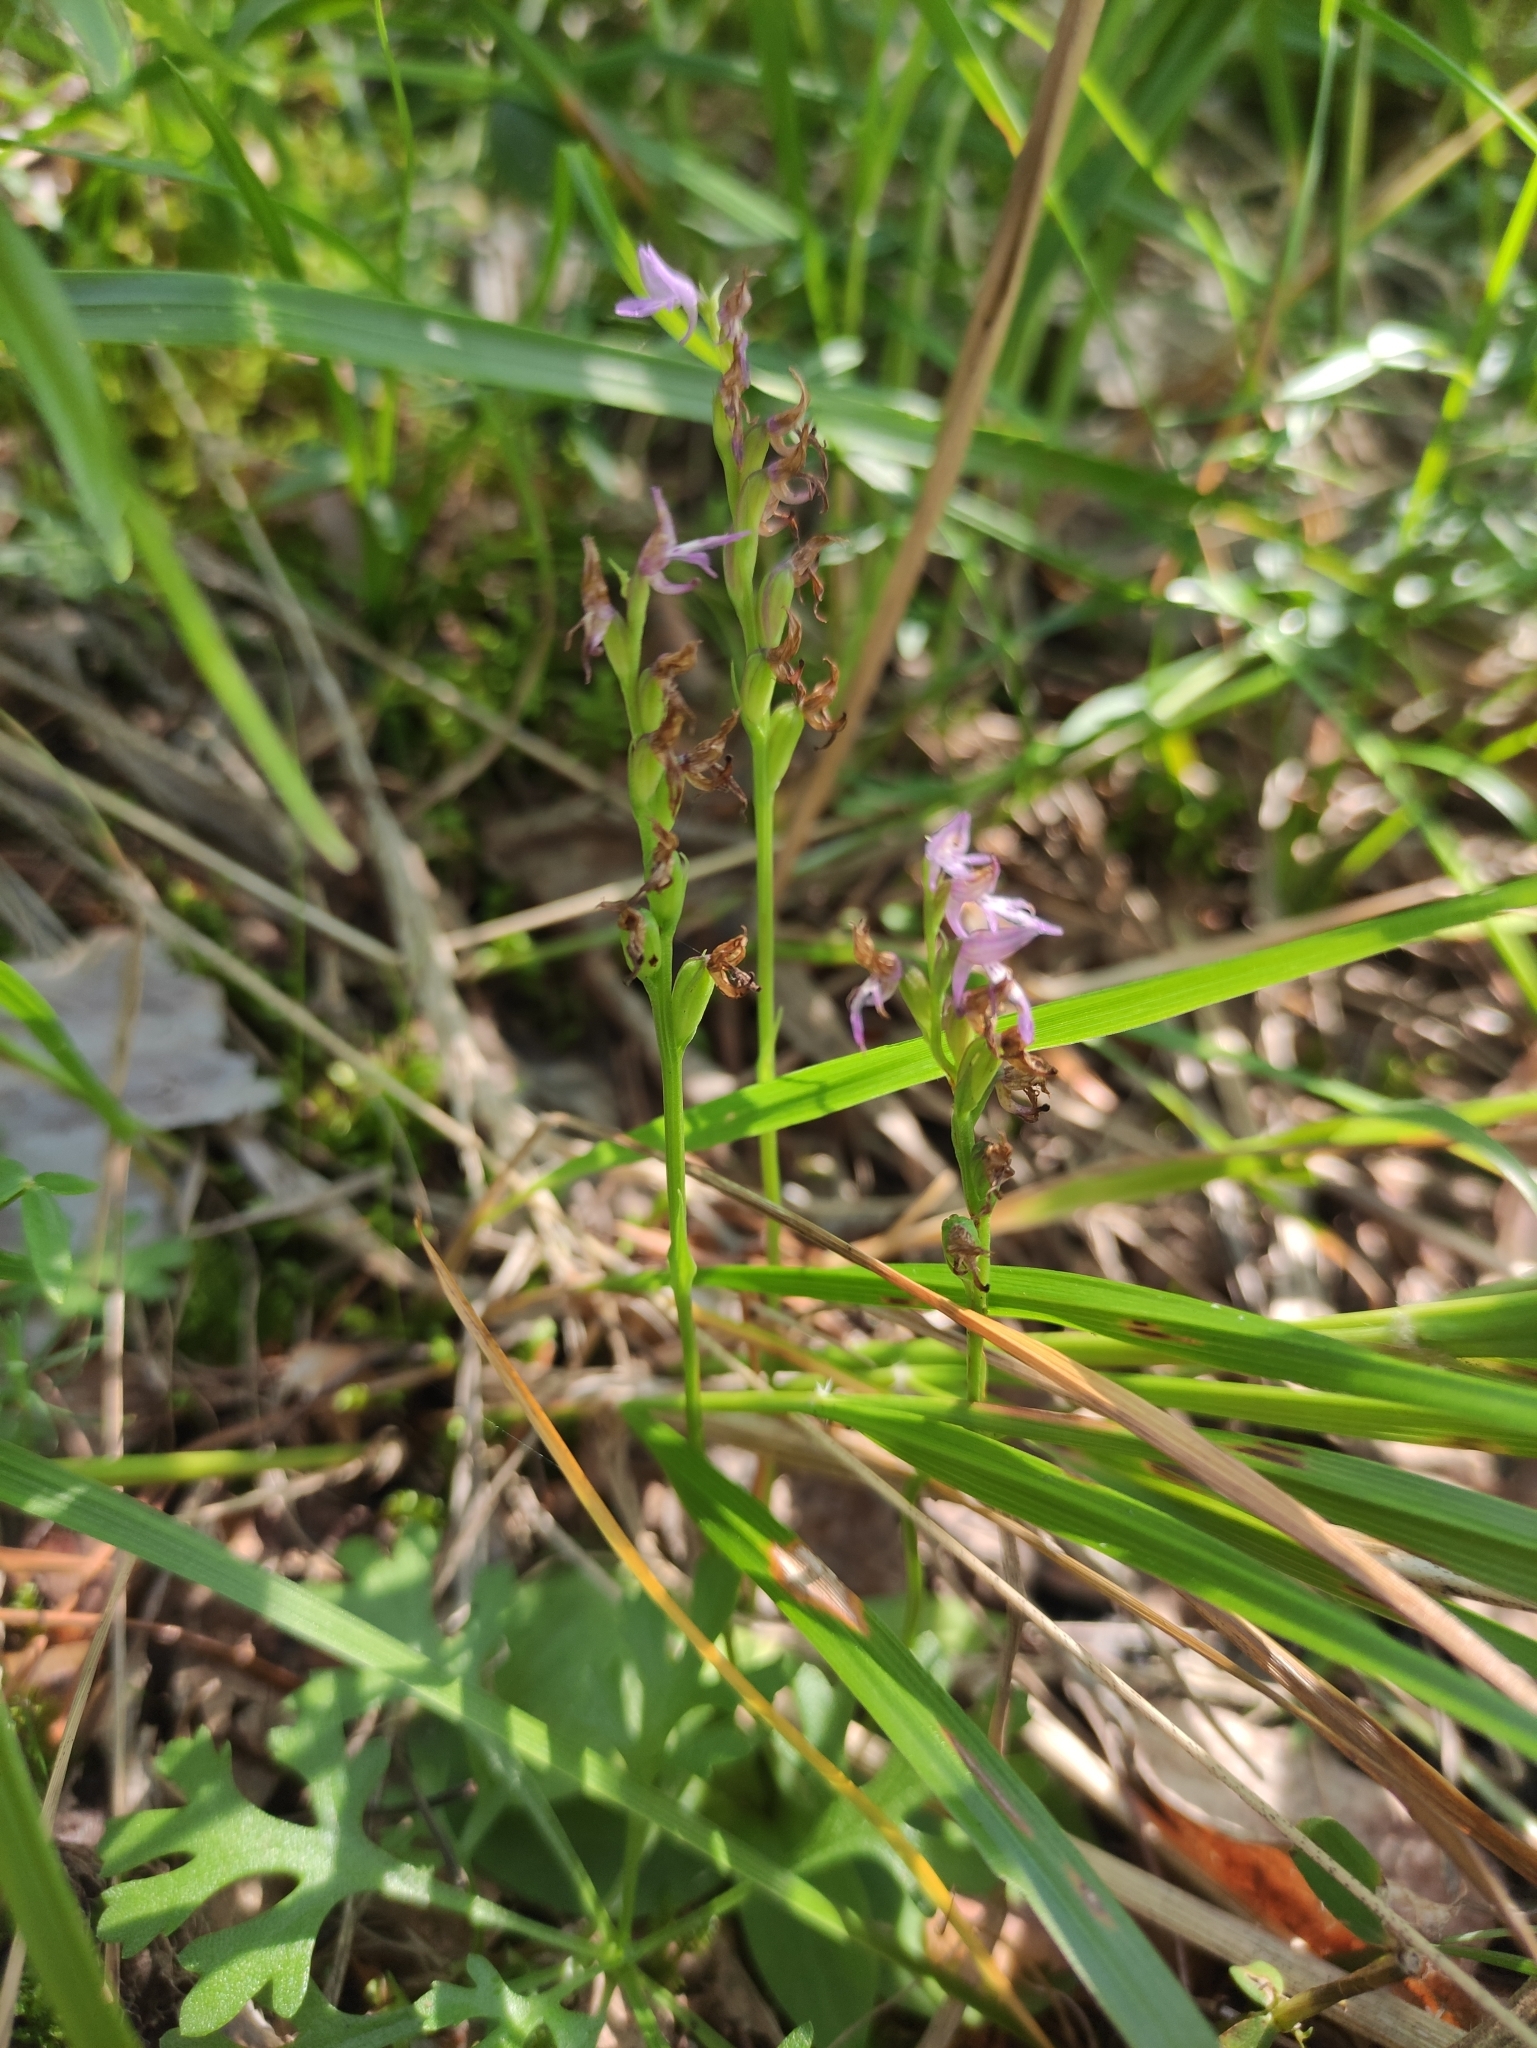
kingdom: Plantae
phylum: Tracheophyta
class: Liliopsida
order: Asparagales
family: Orchidaceae
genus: Hemipilia
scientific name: Hemipilia cucullata
